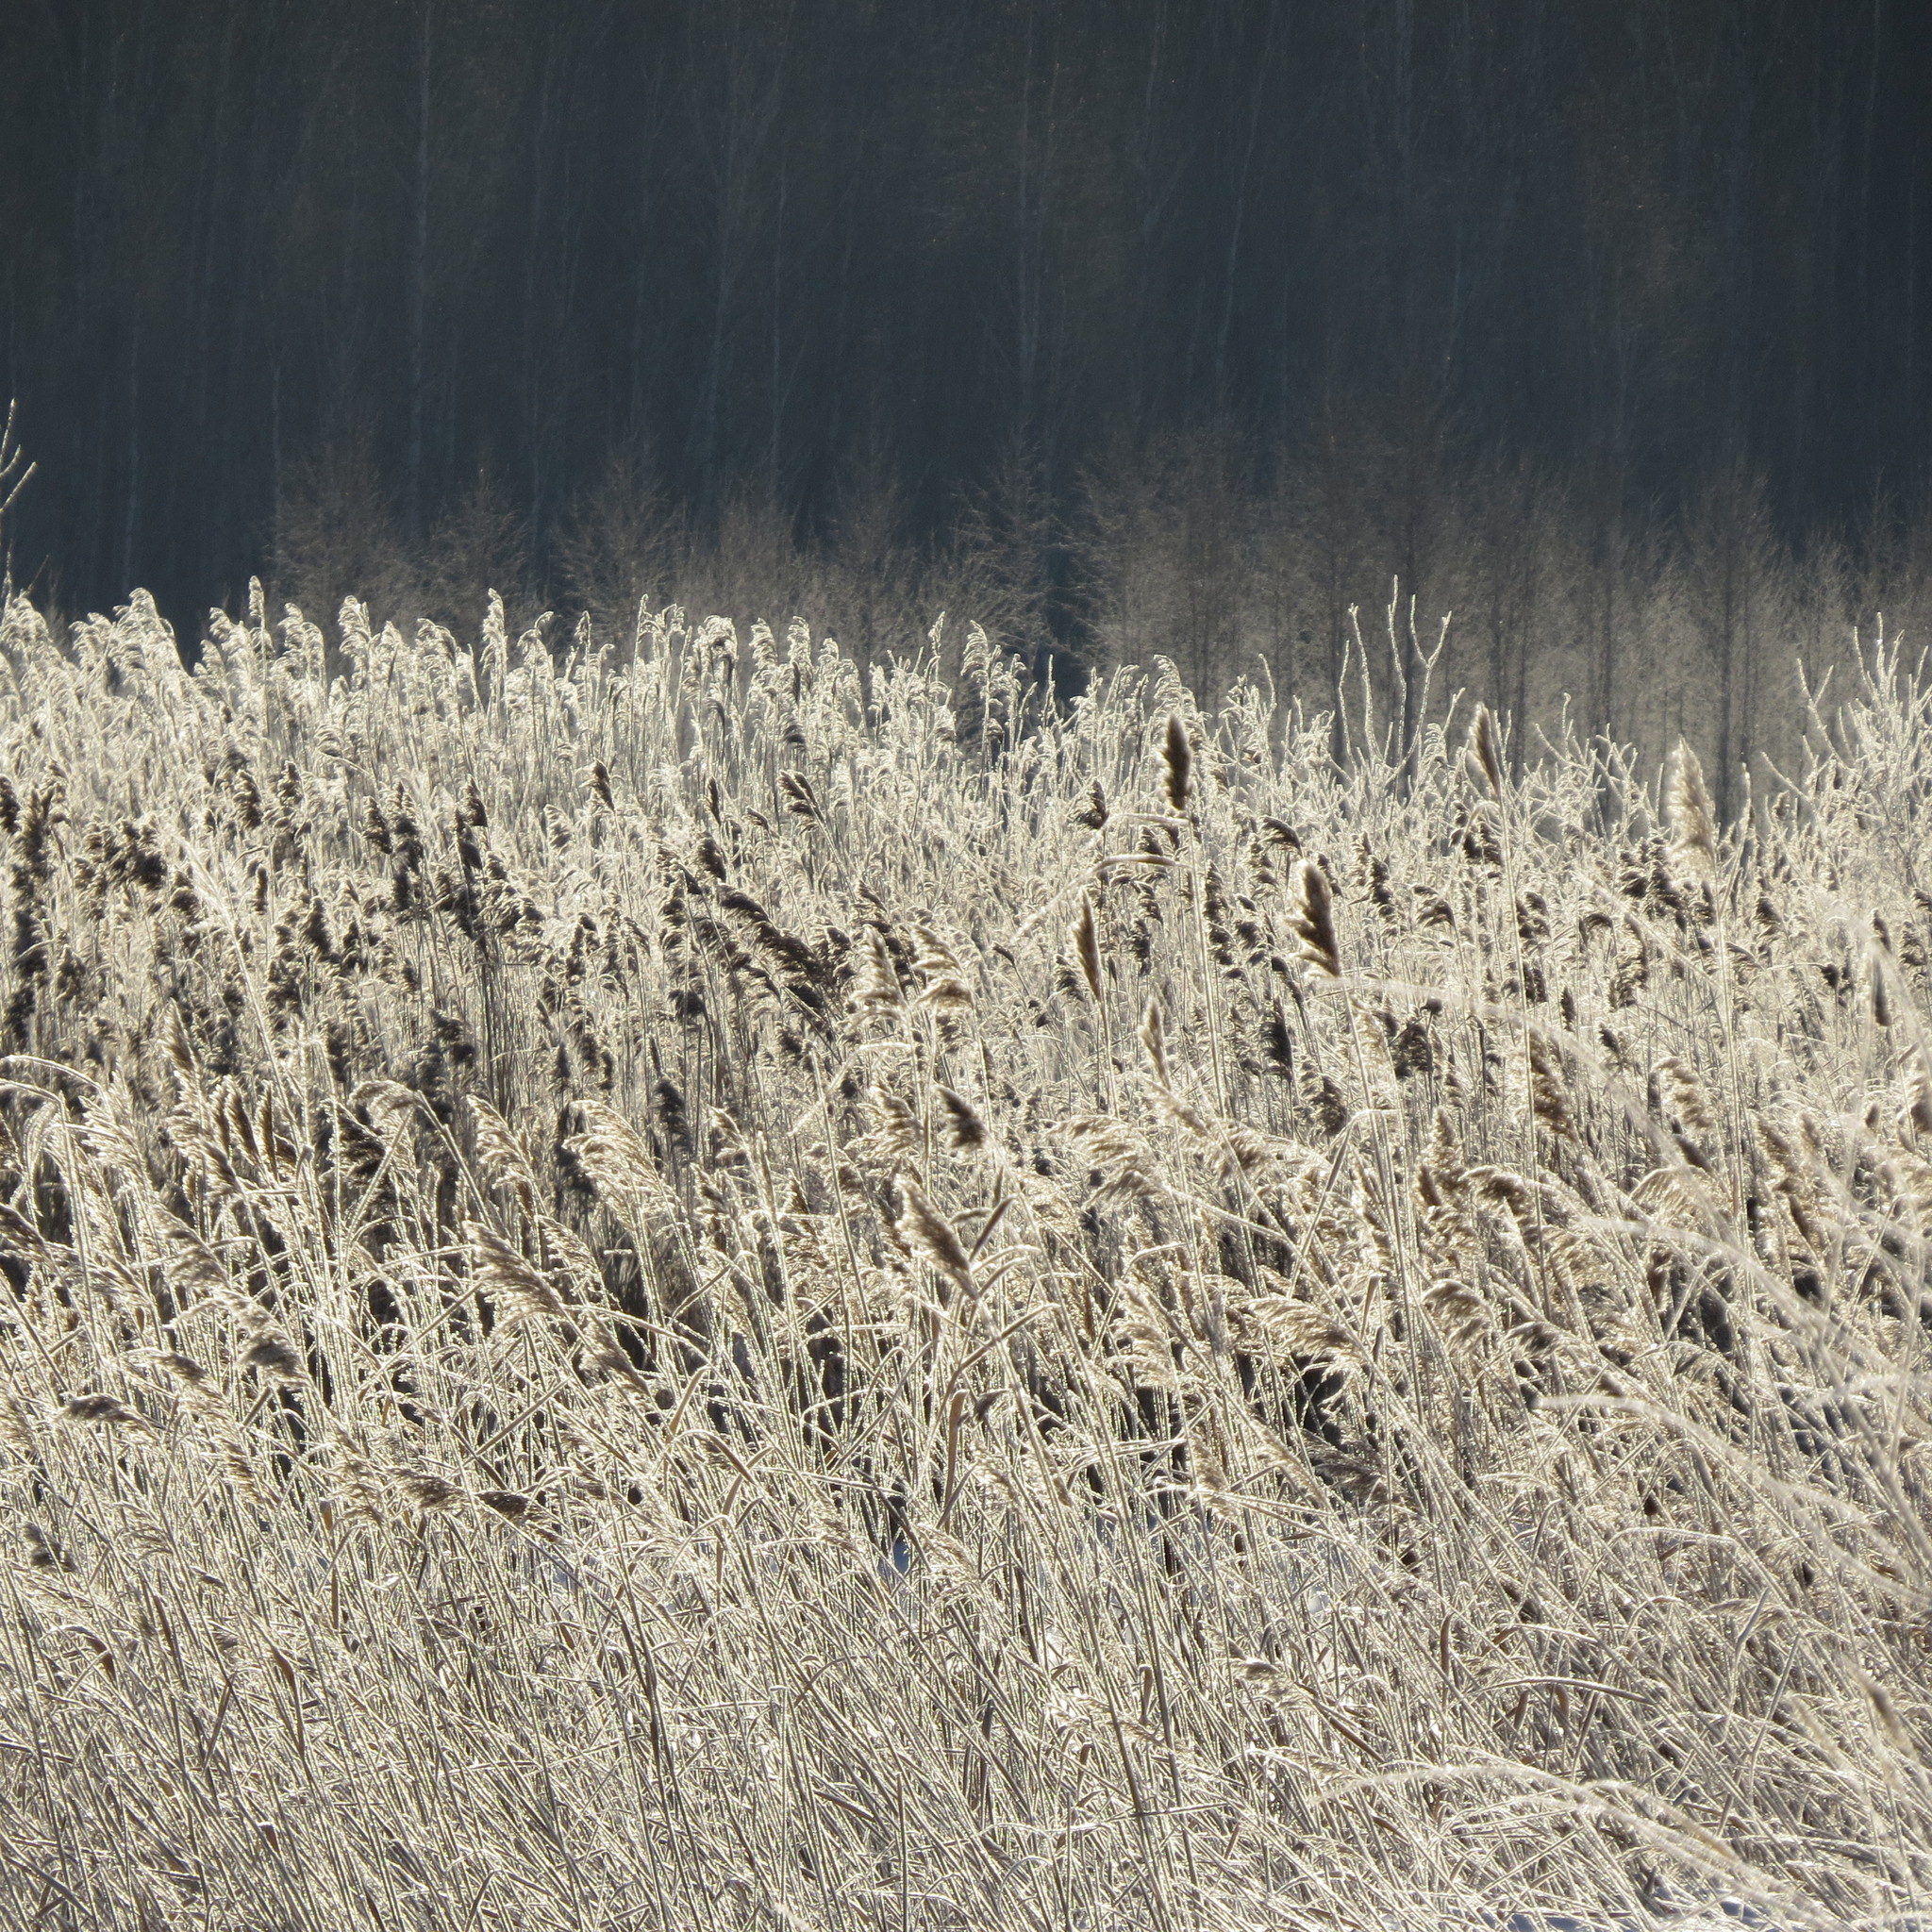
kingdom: Plantae
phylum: Tracheophyta
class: Liliopsida
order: Poales
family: Poaceae
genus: Phragmites
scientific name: Phragmites australis
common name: Common reed
